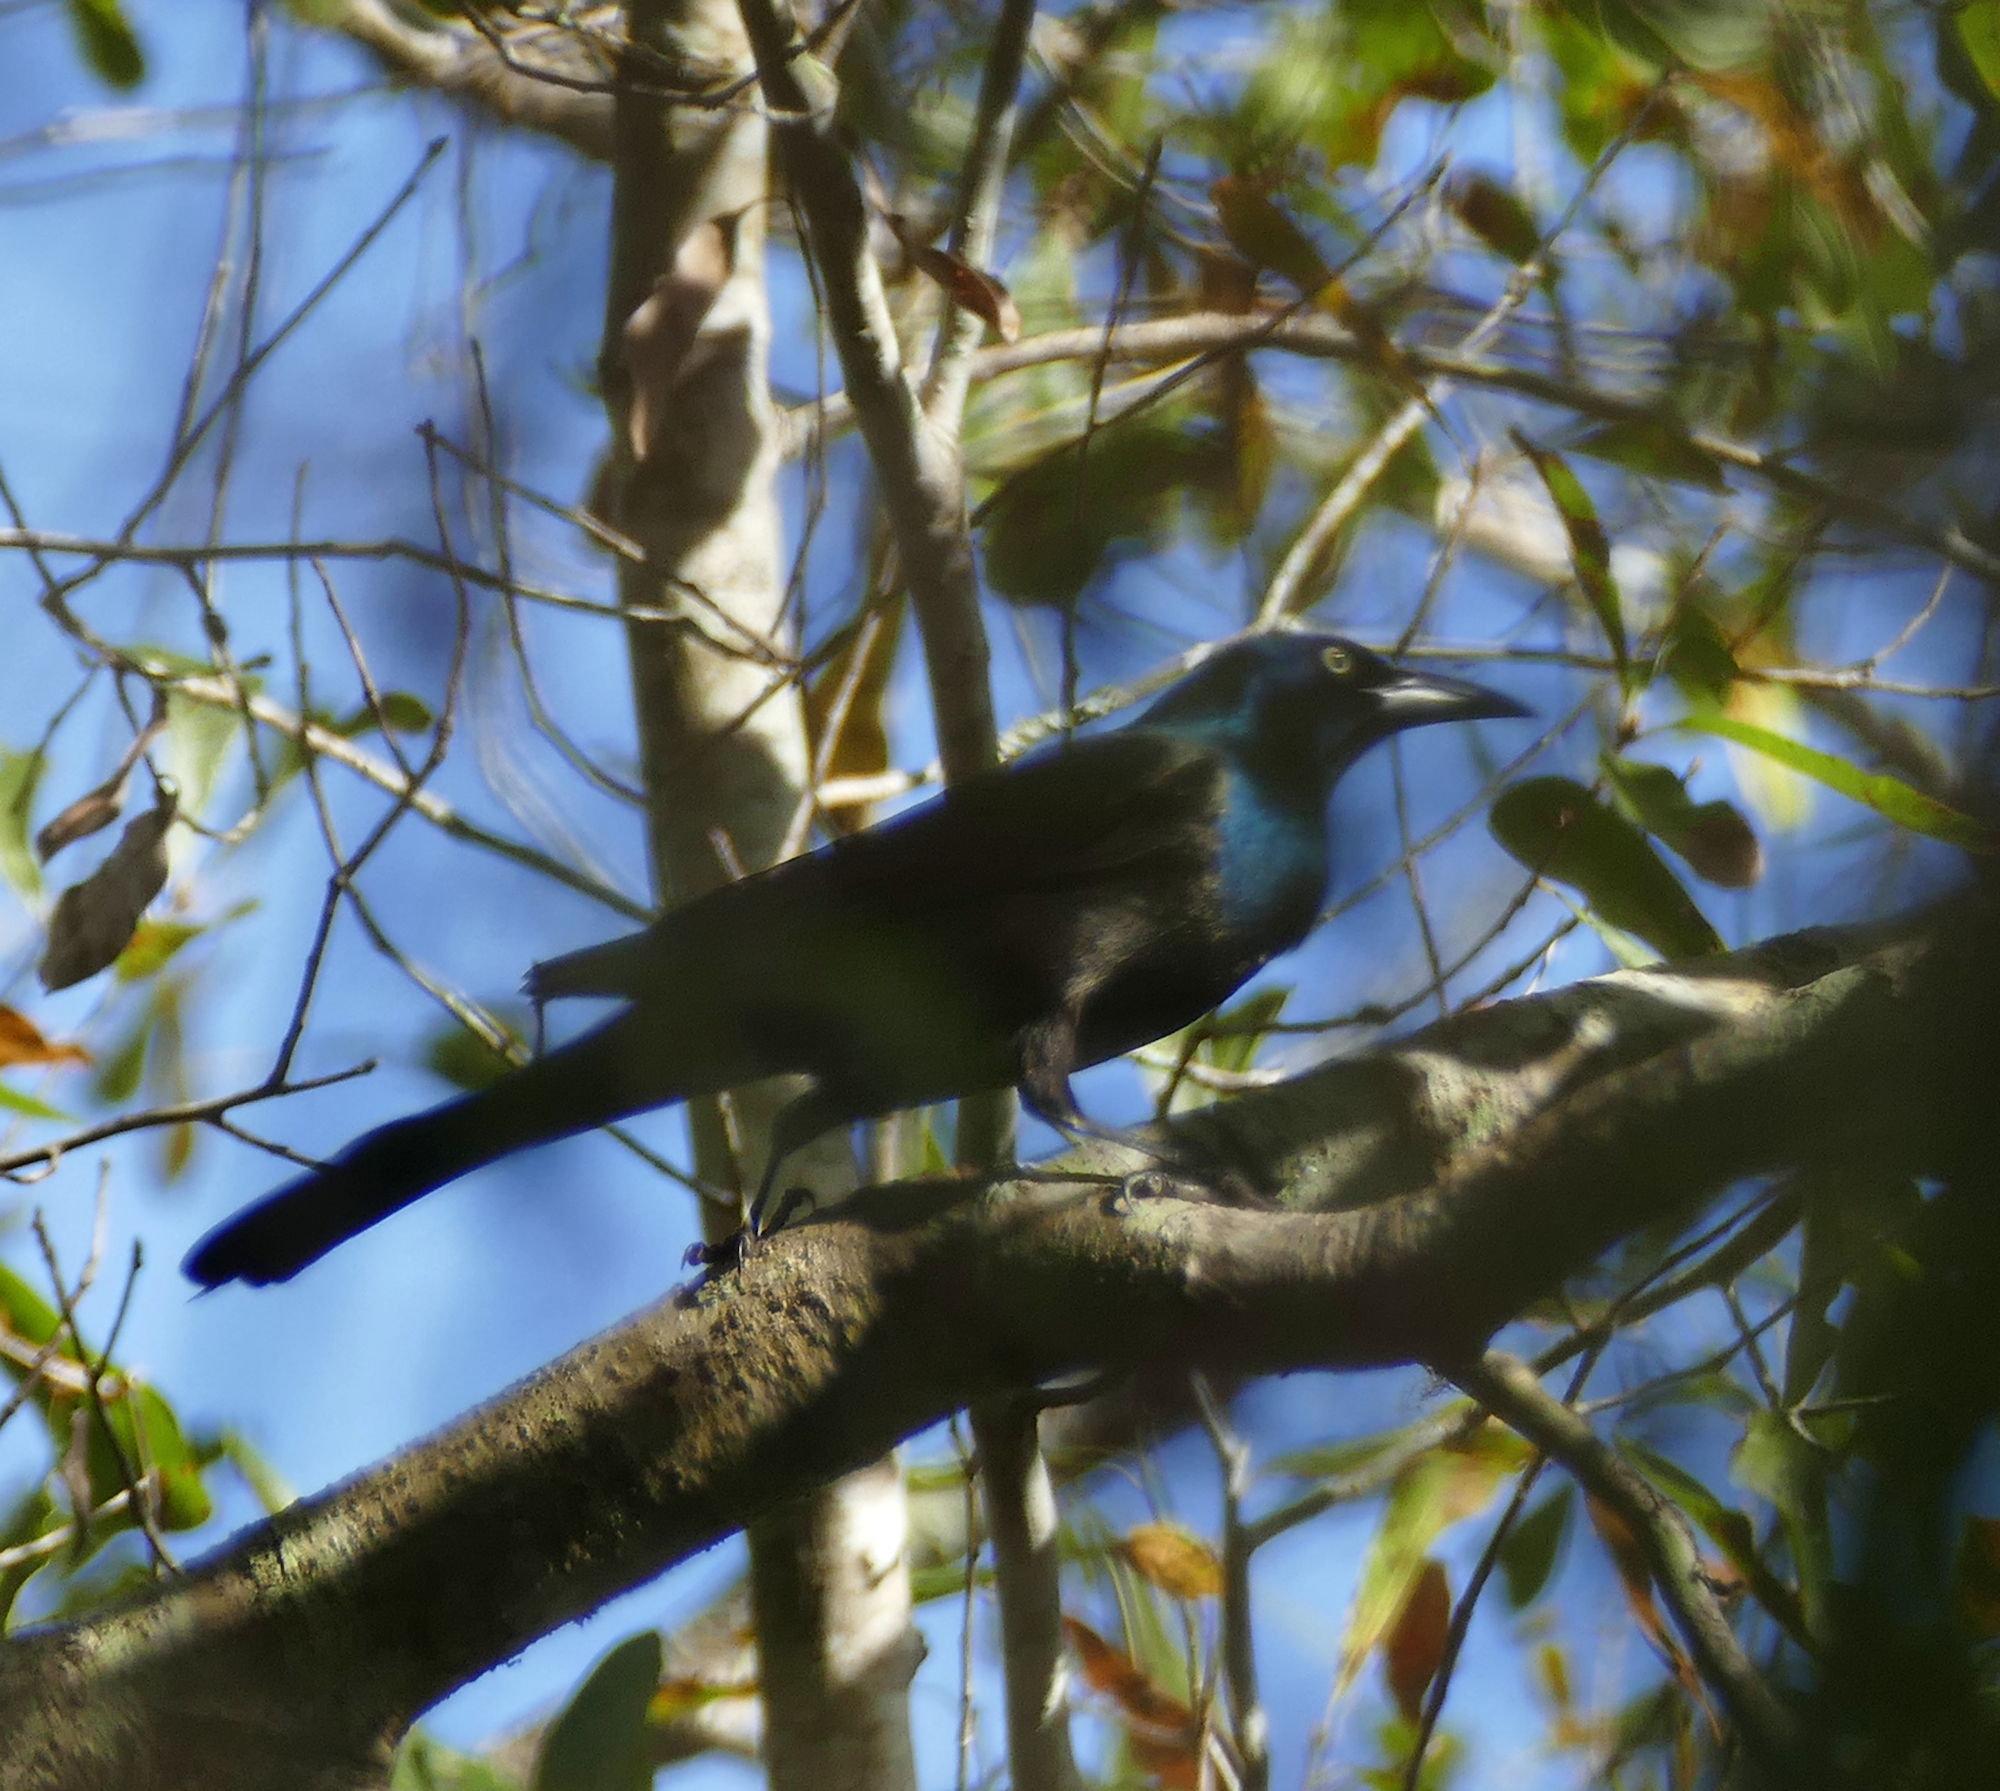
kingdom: Animalia
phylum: Chordata
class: Aves
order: Passeriformes
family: Icteridae
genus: Quiscalus
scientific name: Quiscalus quiscula
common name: Common grackle
